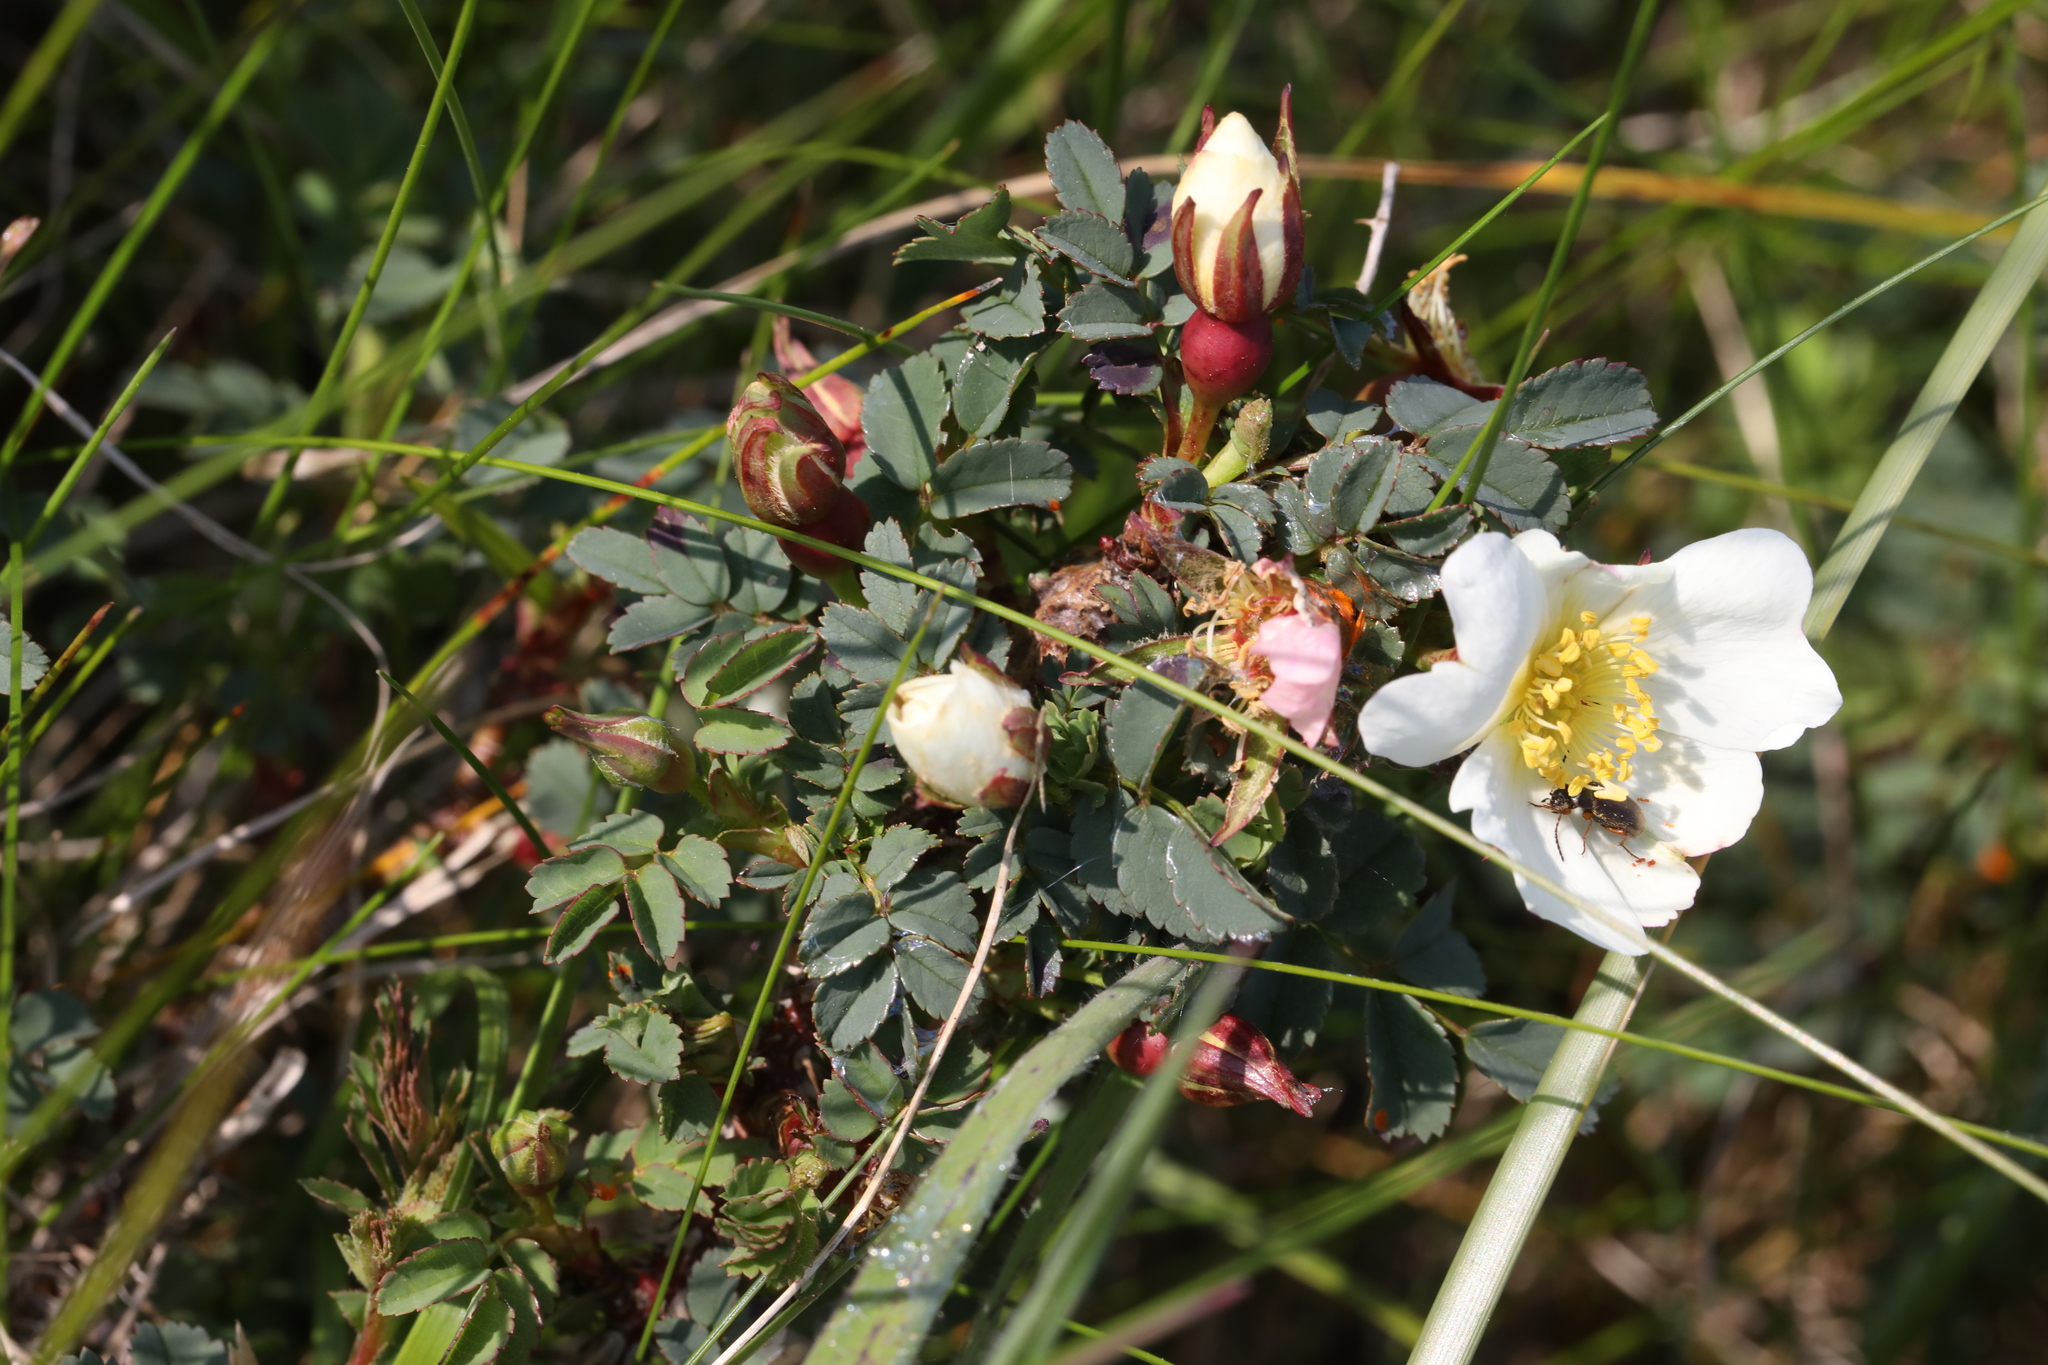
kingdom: Plantae
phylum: Tracheophyta
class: Magnoliopsida
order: Rosales
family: Rosaceae
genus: Rosa
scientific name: Rosa spinosissima
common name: Burnet rose
